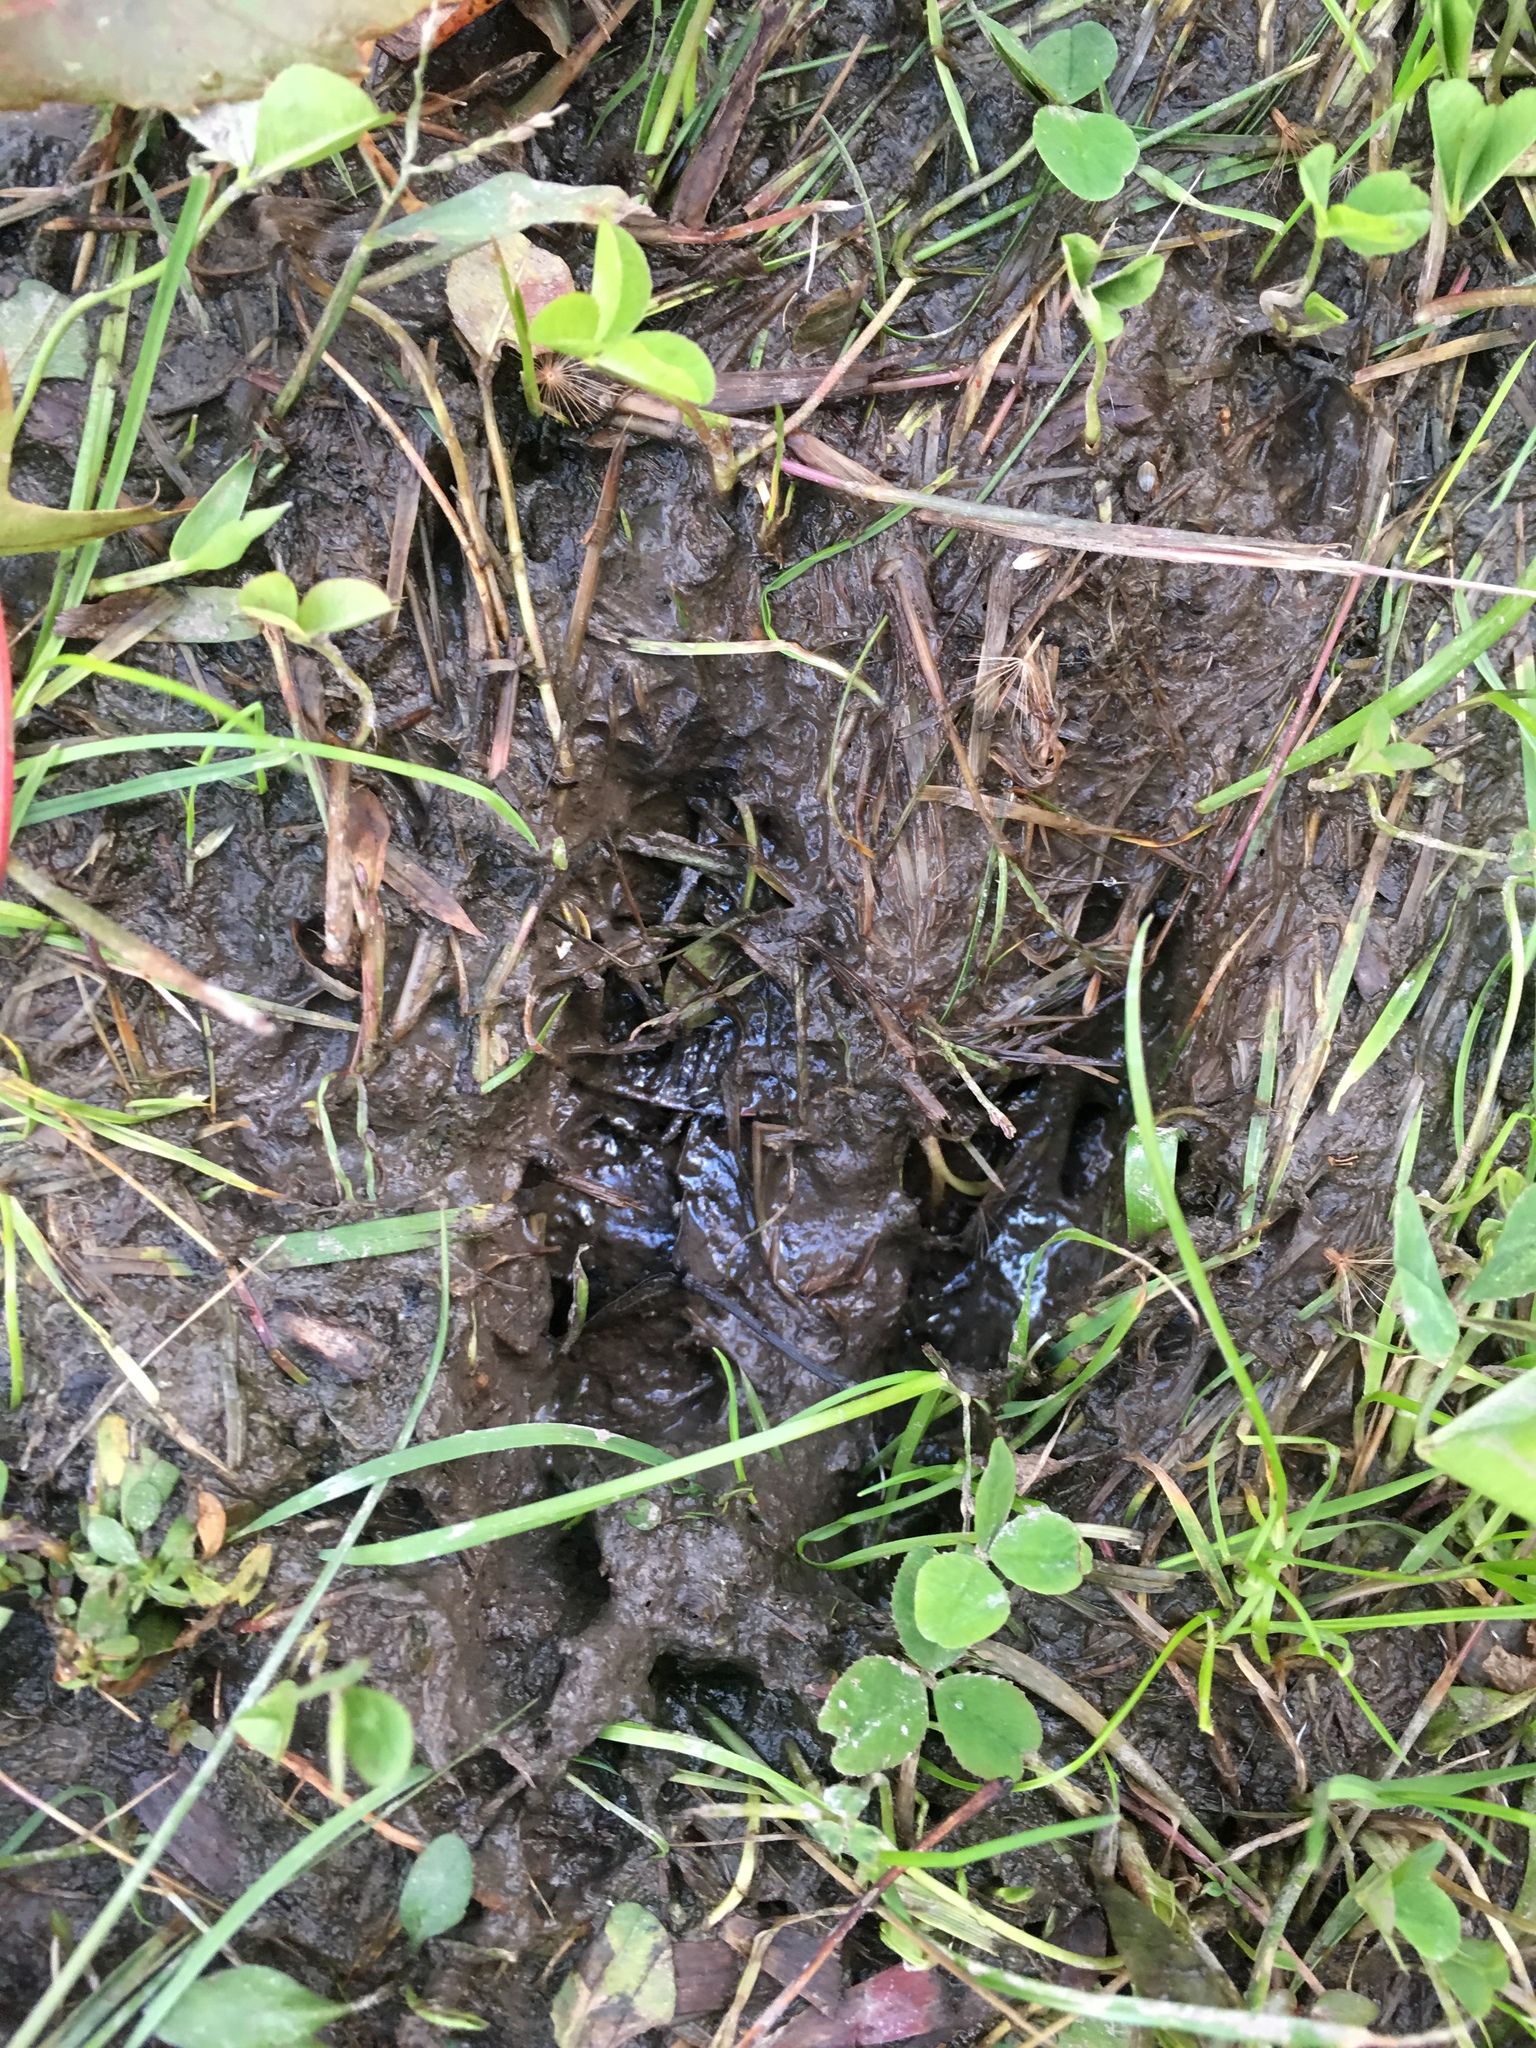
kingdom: Animalia
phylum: Chordata
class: Mammalia
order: Artiodactyla
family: Cervidae
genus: Odocoileus
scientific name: Odocoileus virginianus
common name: White-tailed deer
